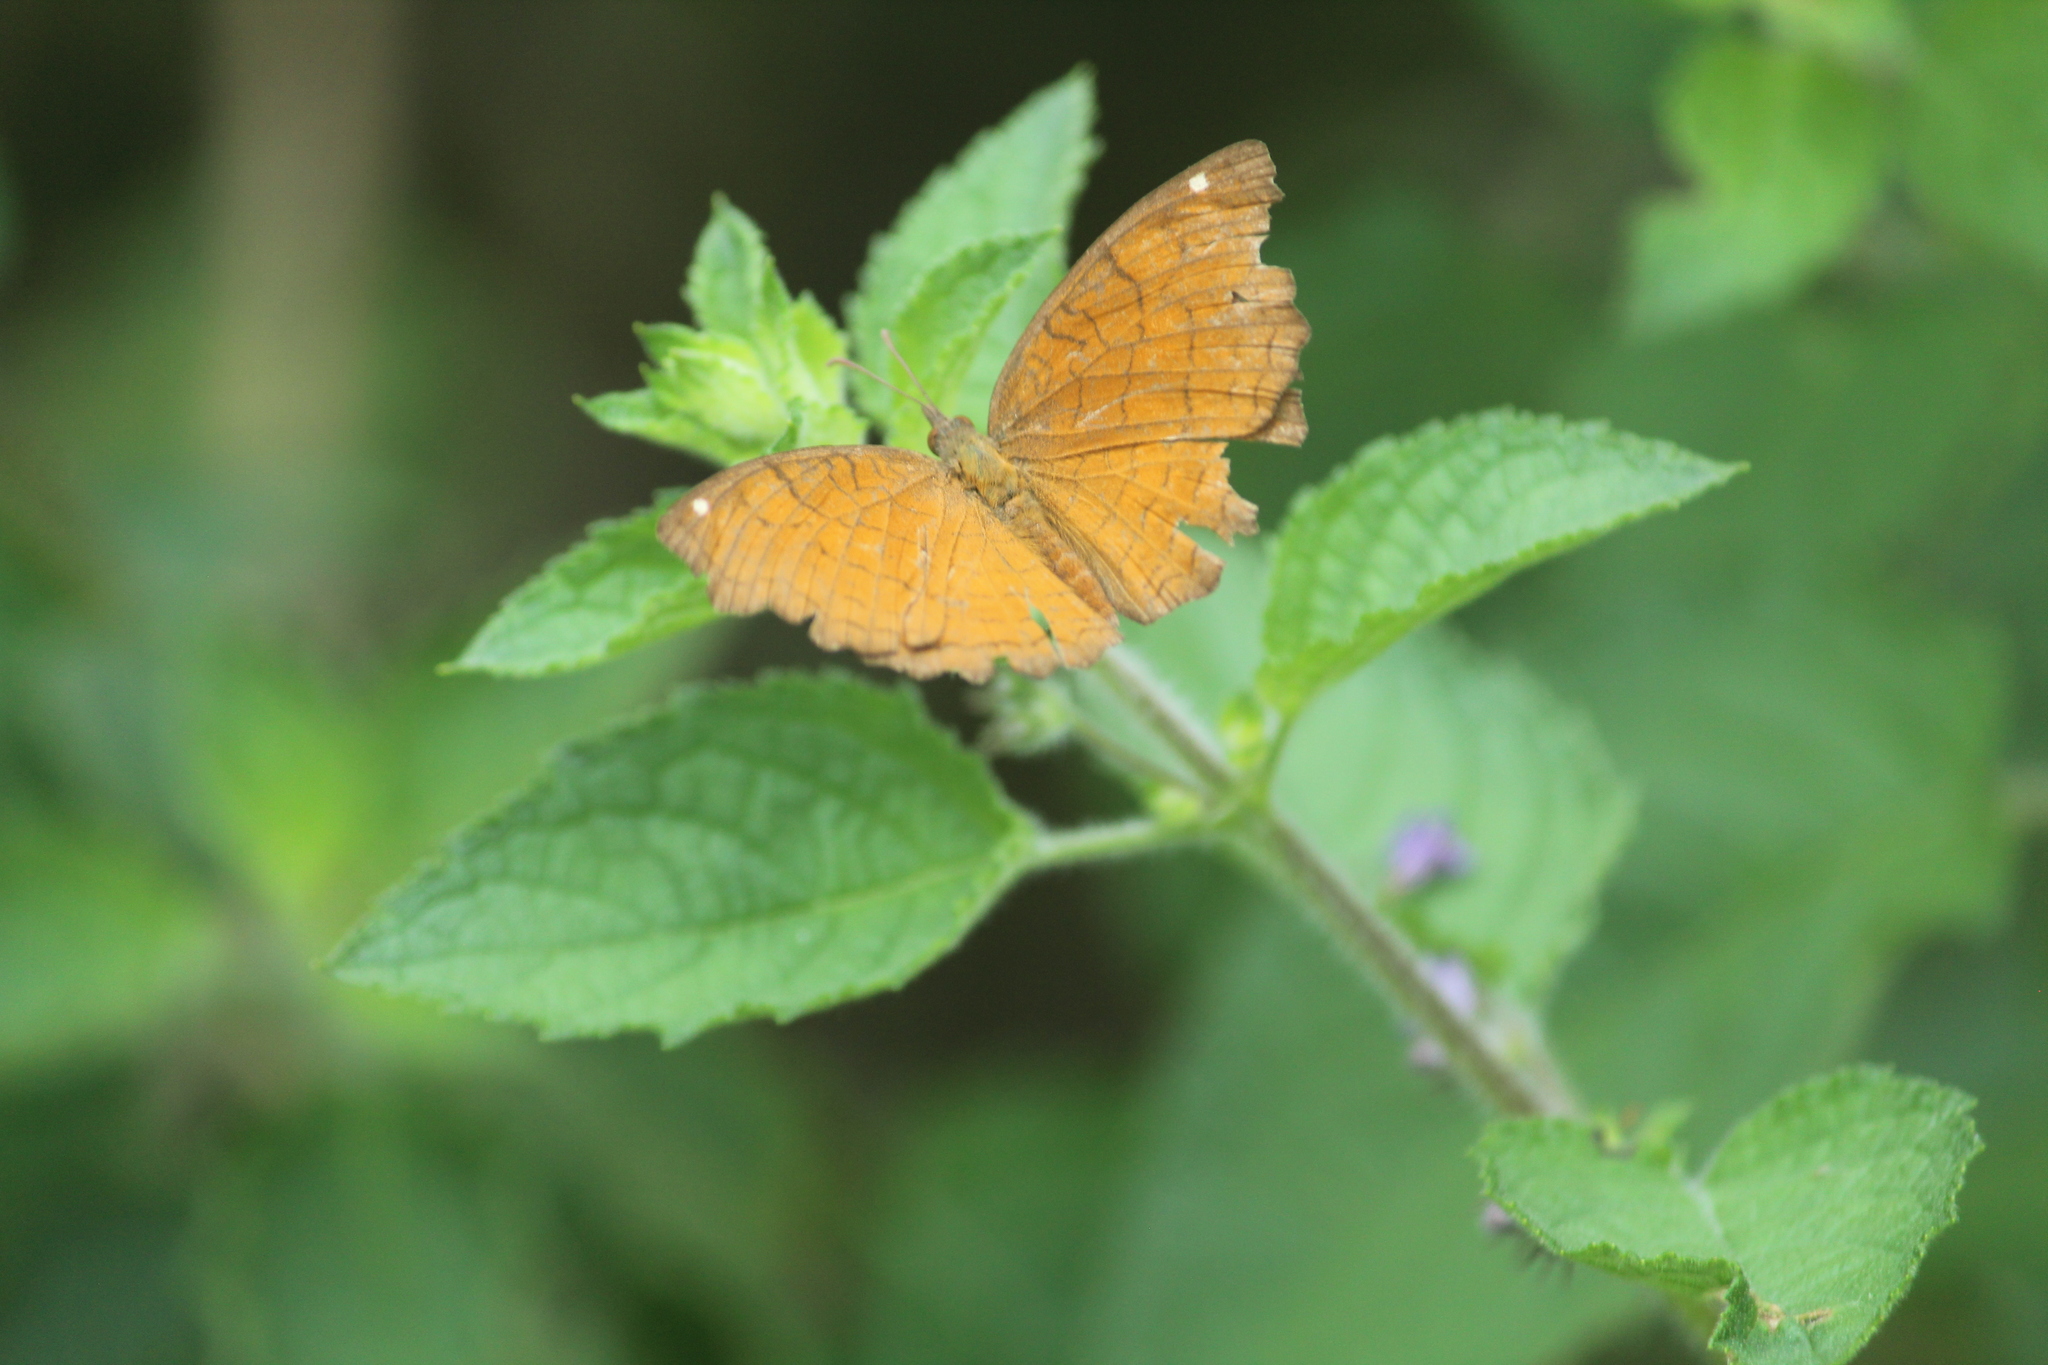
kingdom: Animalia
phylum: Arthropoda
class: Insecta
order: Lepidoptera
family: Nymphalidae
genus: Ariadne
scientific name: Ariadne ariadne
